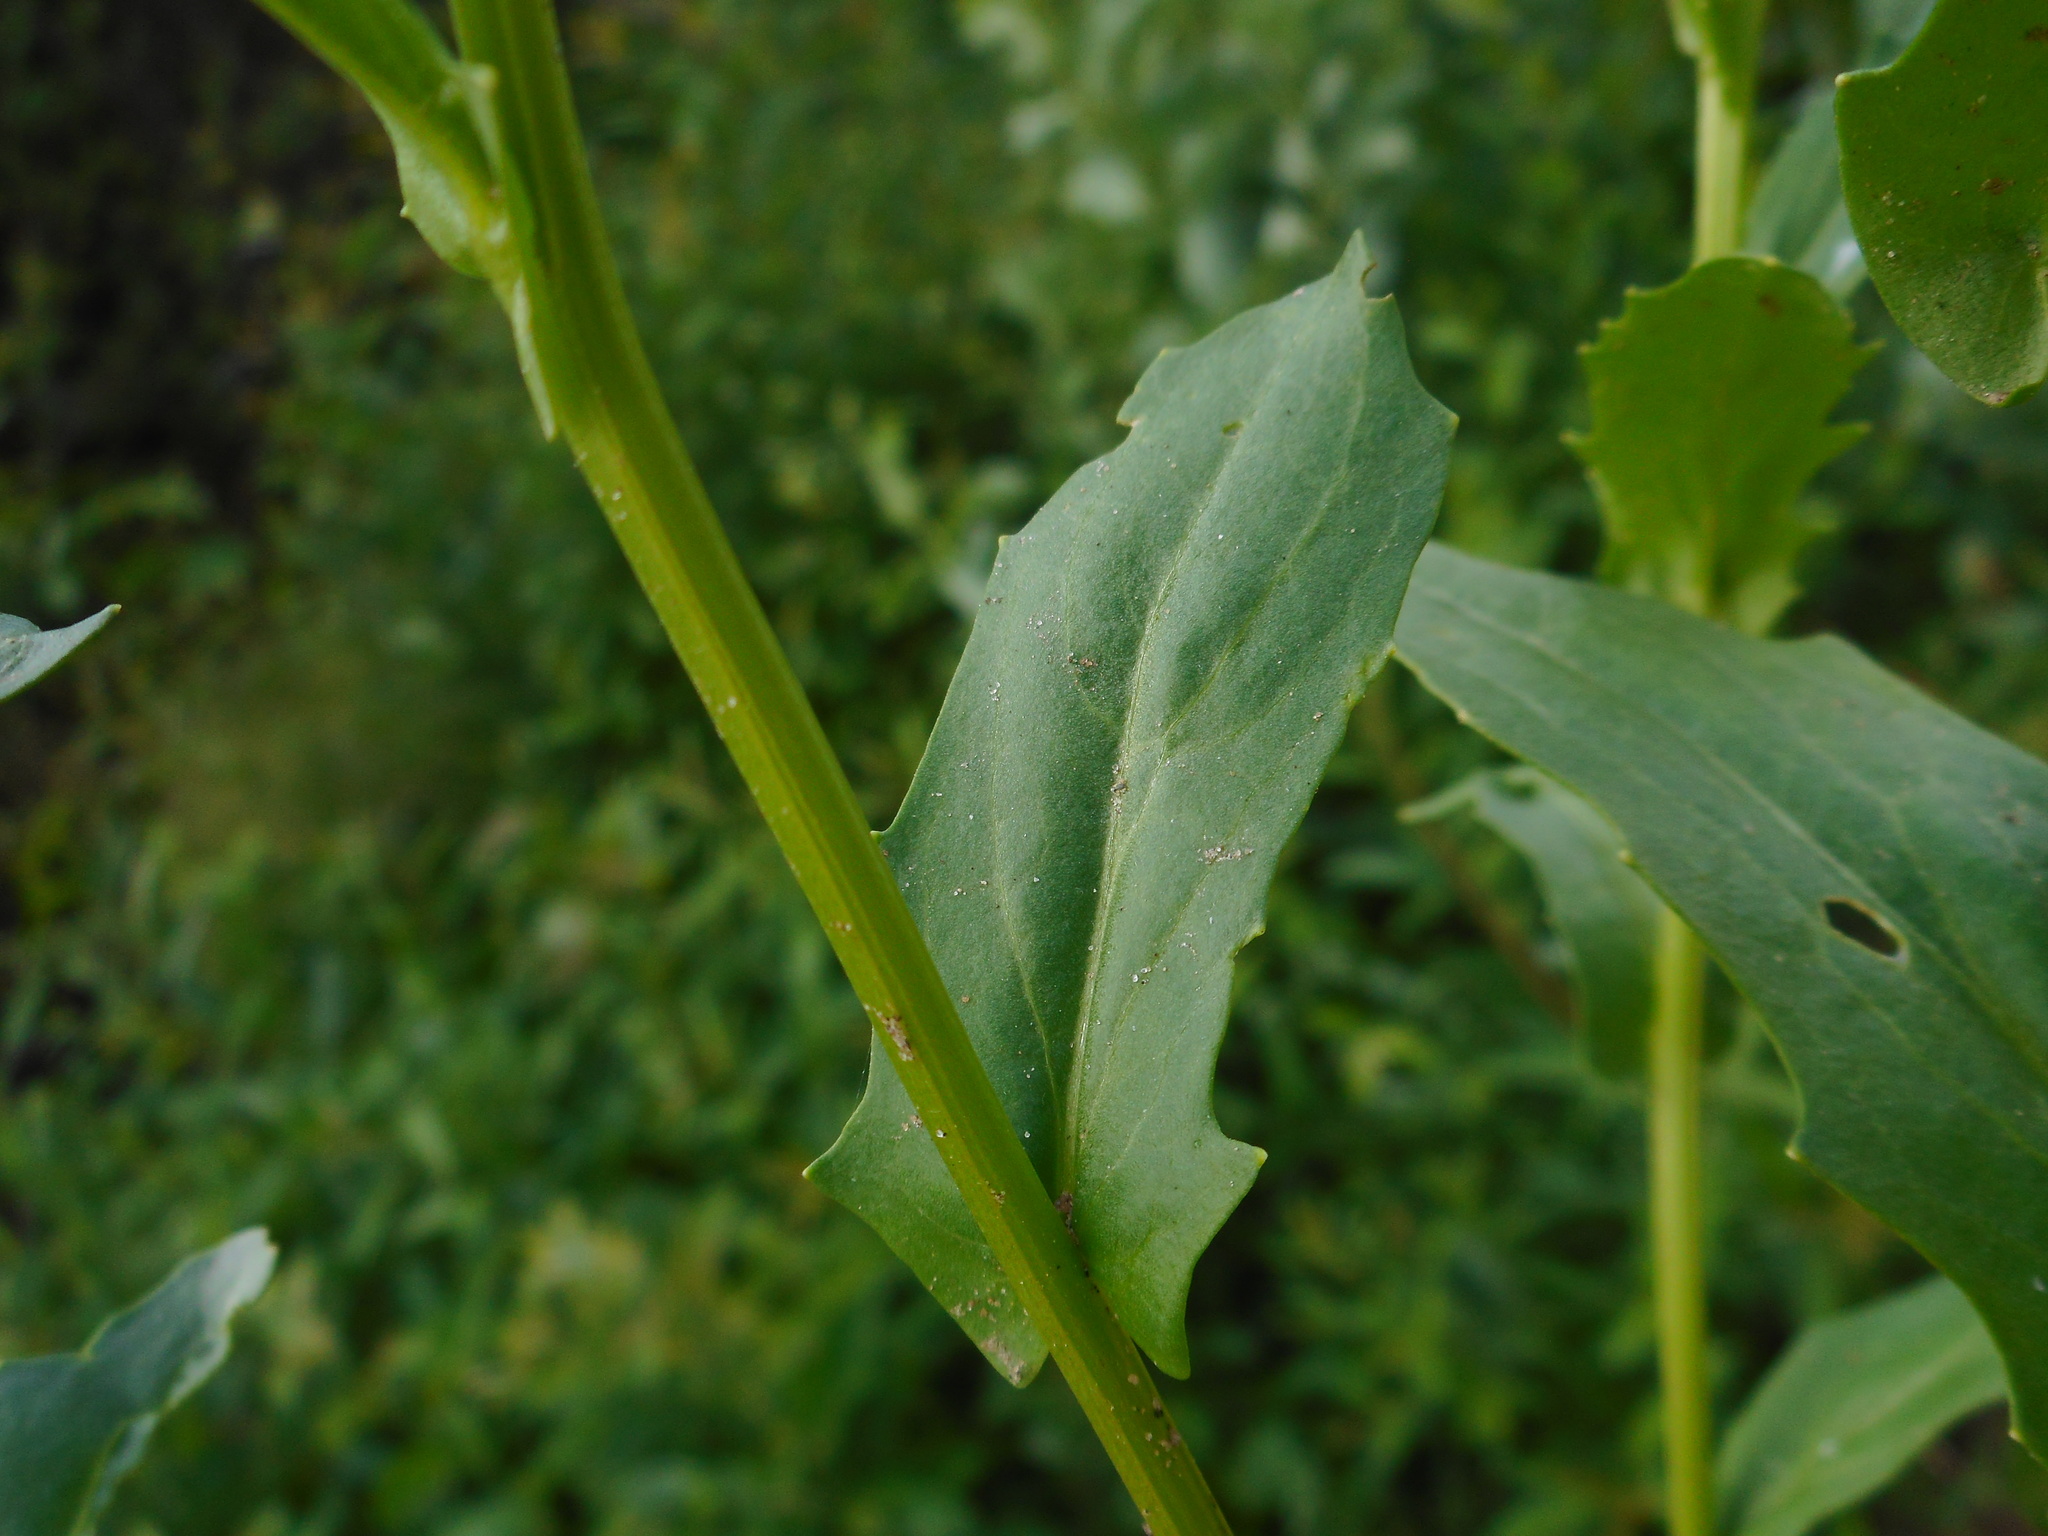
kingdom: Plantae
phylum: Tracheophyta
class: Magnoliopsida
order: Brassicales
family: Brassicaceae
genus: Thlaspi
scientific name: Thlaspi arvense
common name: Field pennycress
